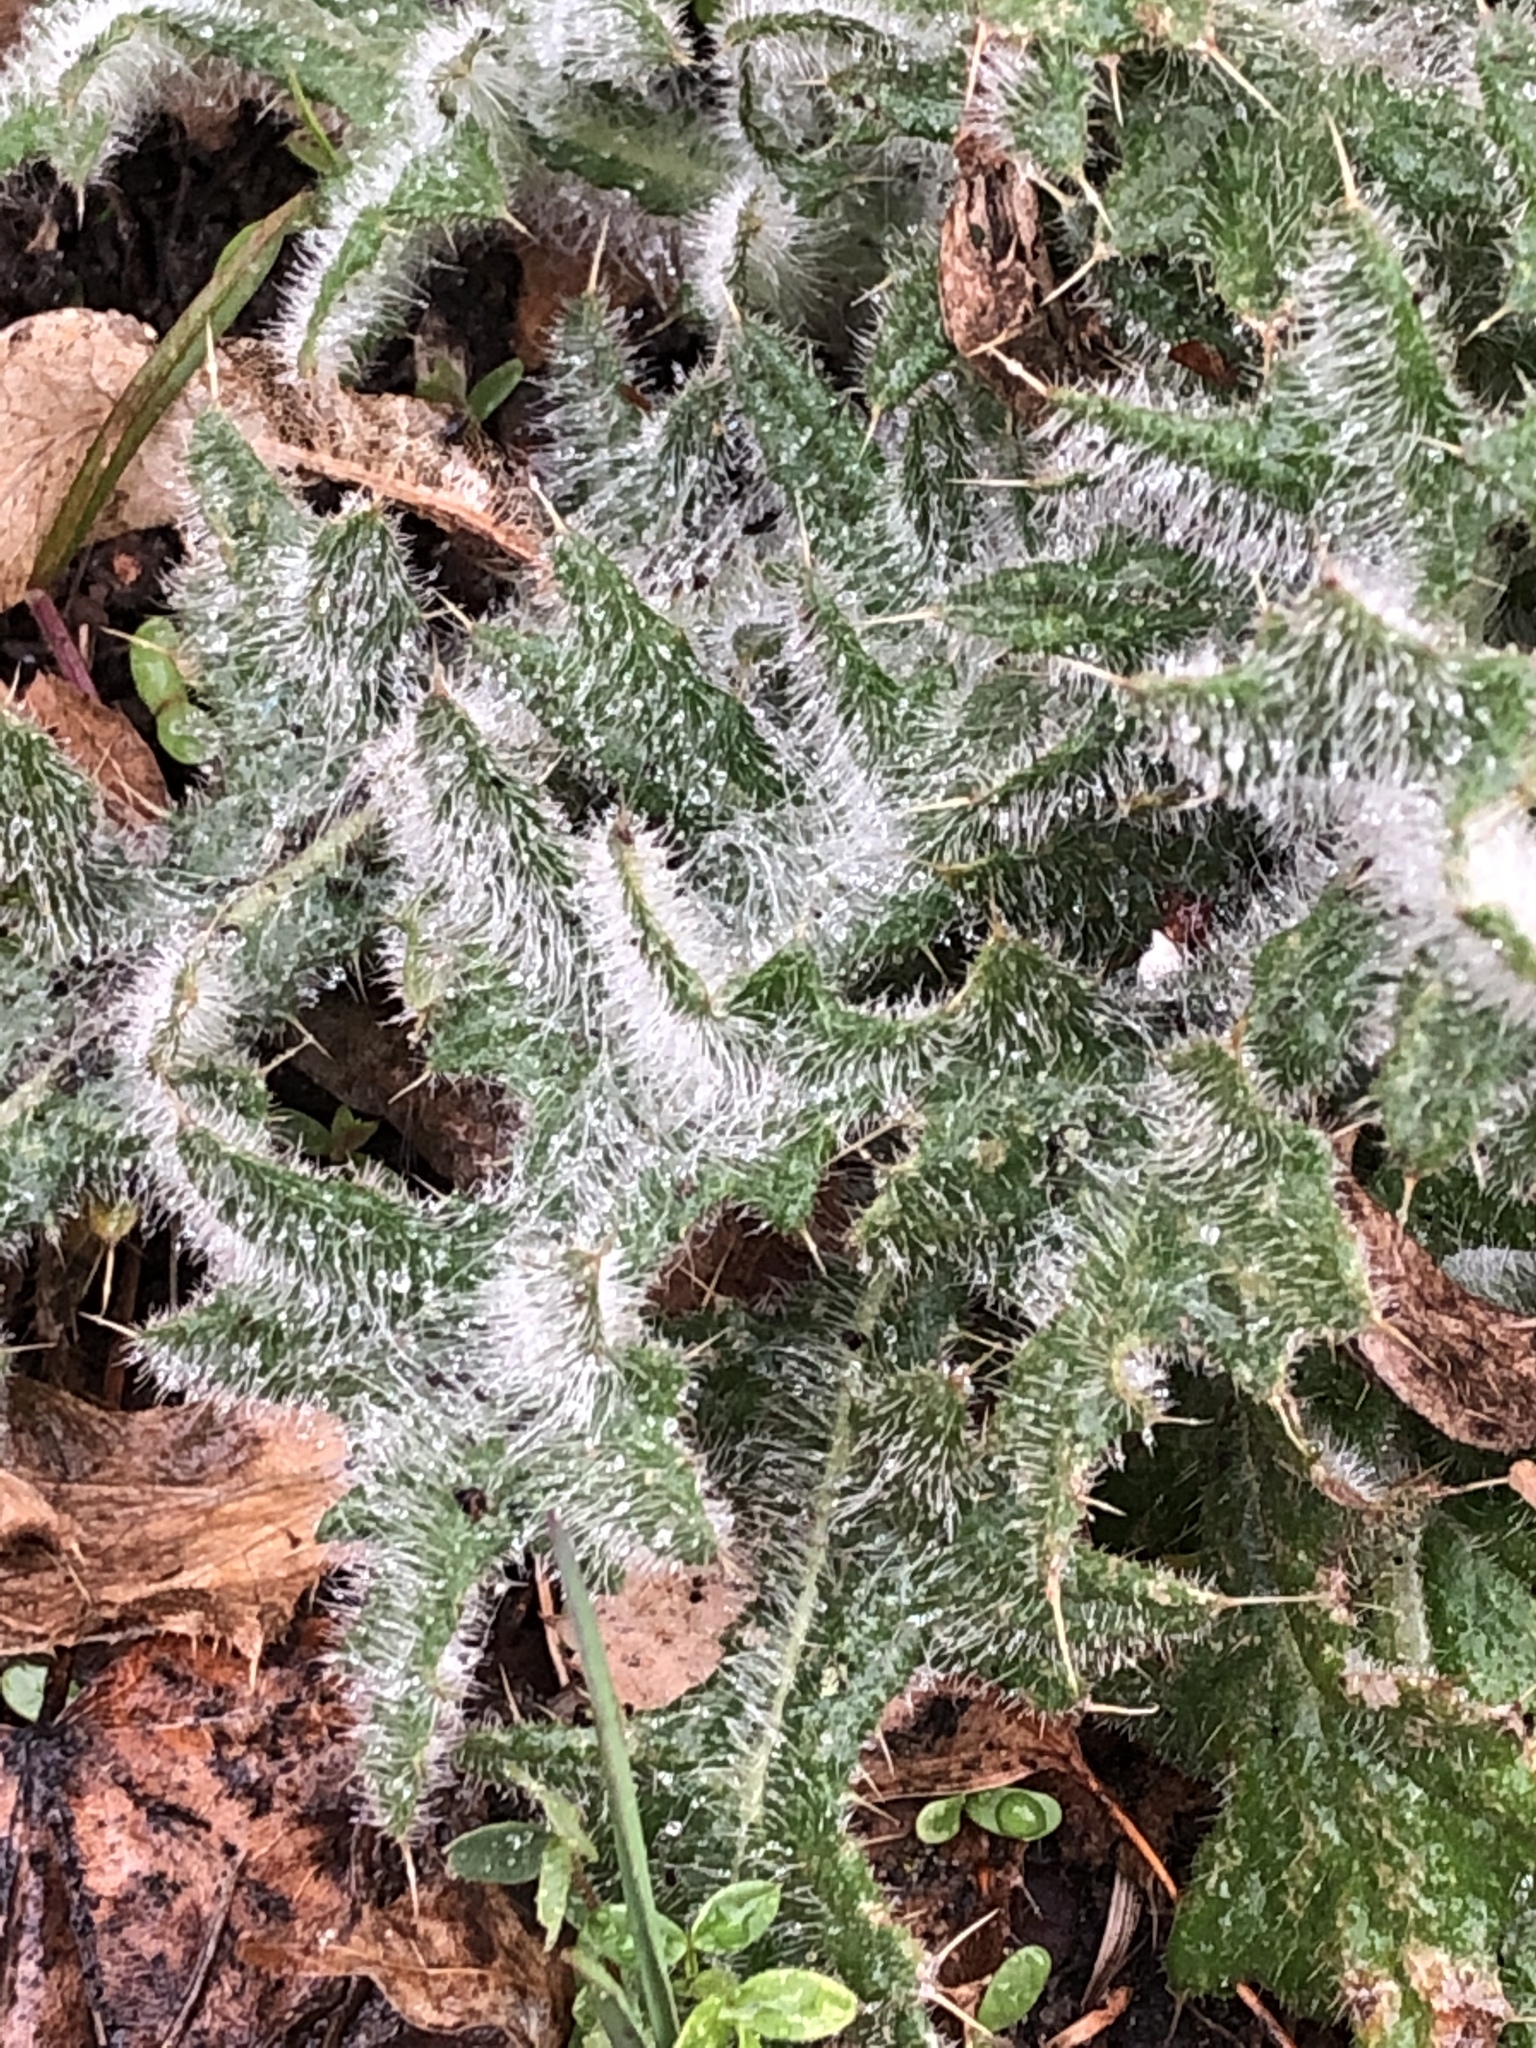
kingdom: Plantae
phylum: Tracheophyta
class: Magnoliopsida
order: Asterales
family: Asteraceae
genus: Cirsium
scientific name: Cirsium vulgare
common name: Bull thistle
